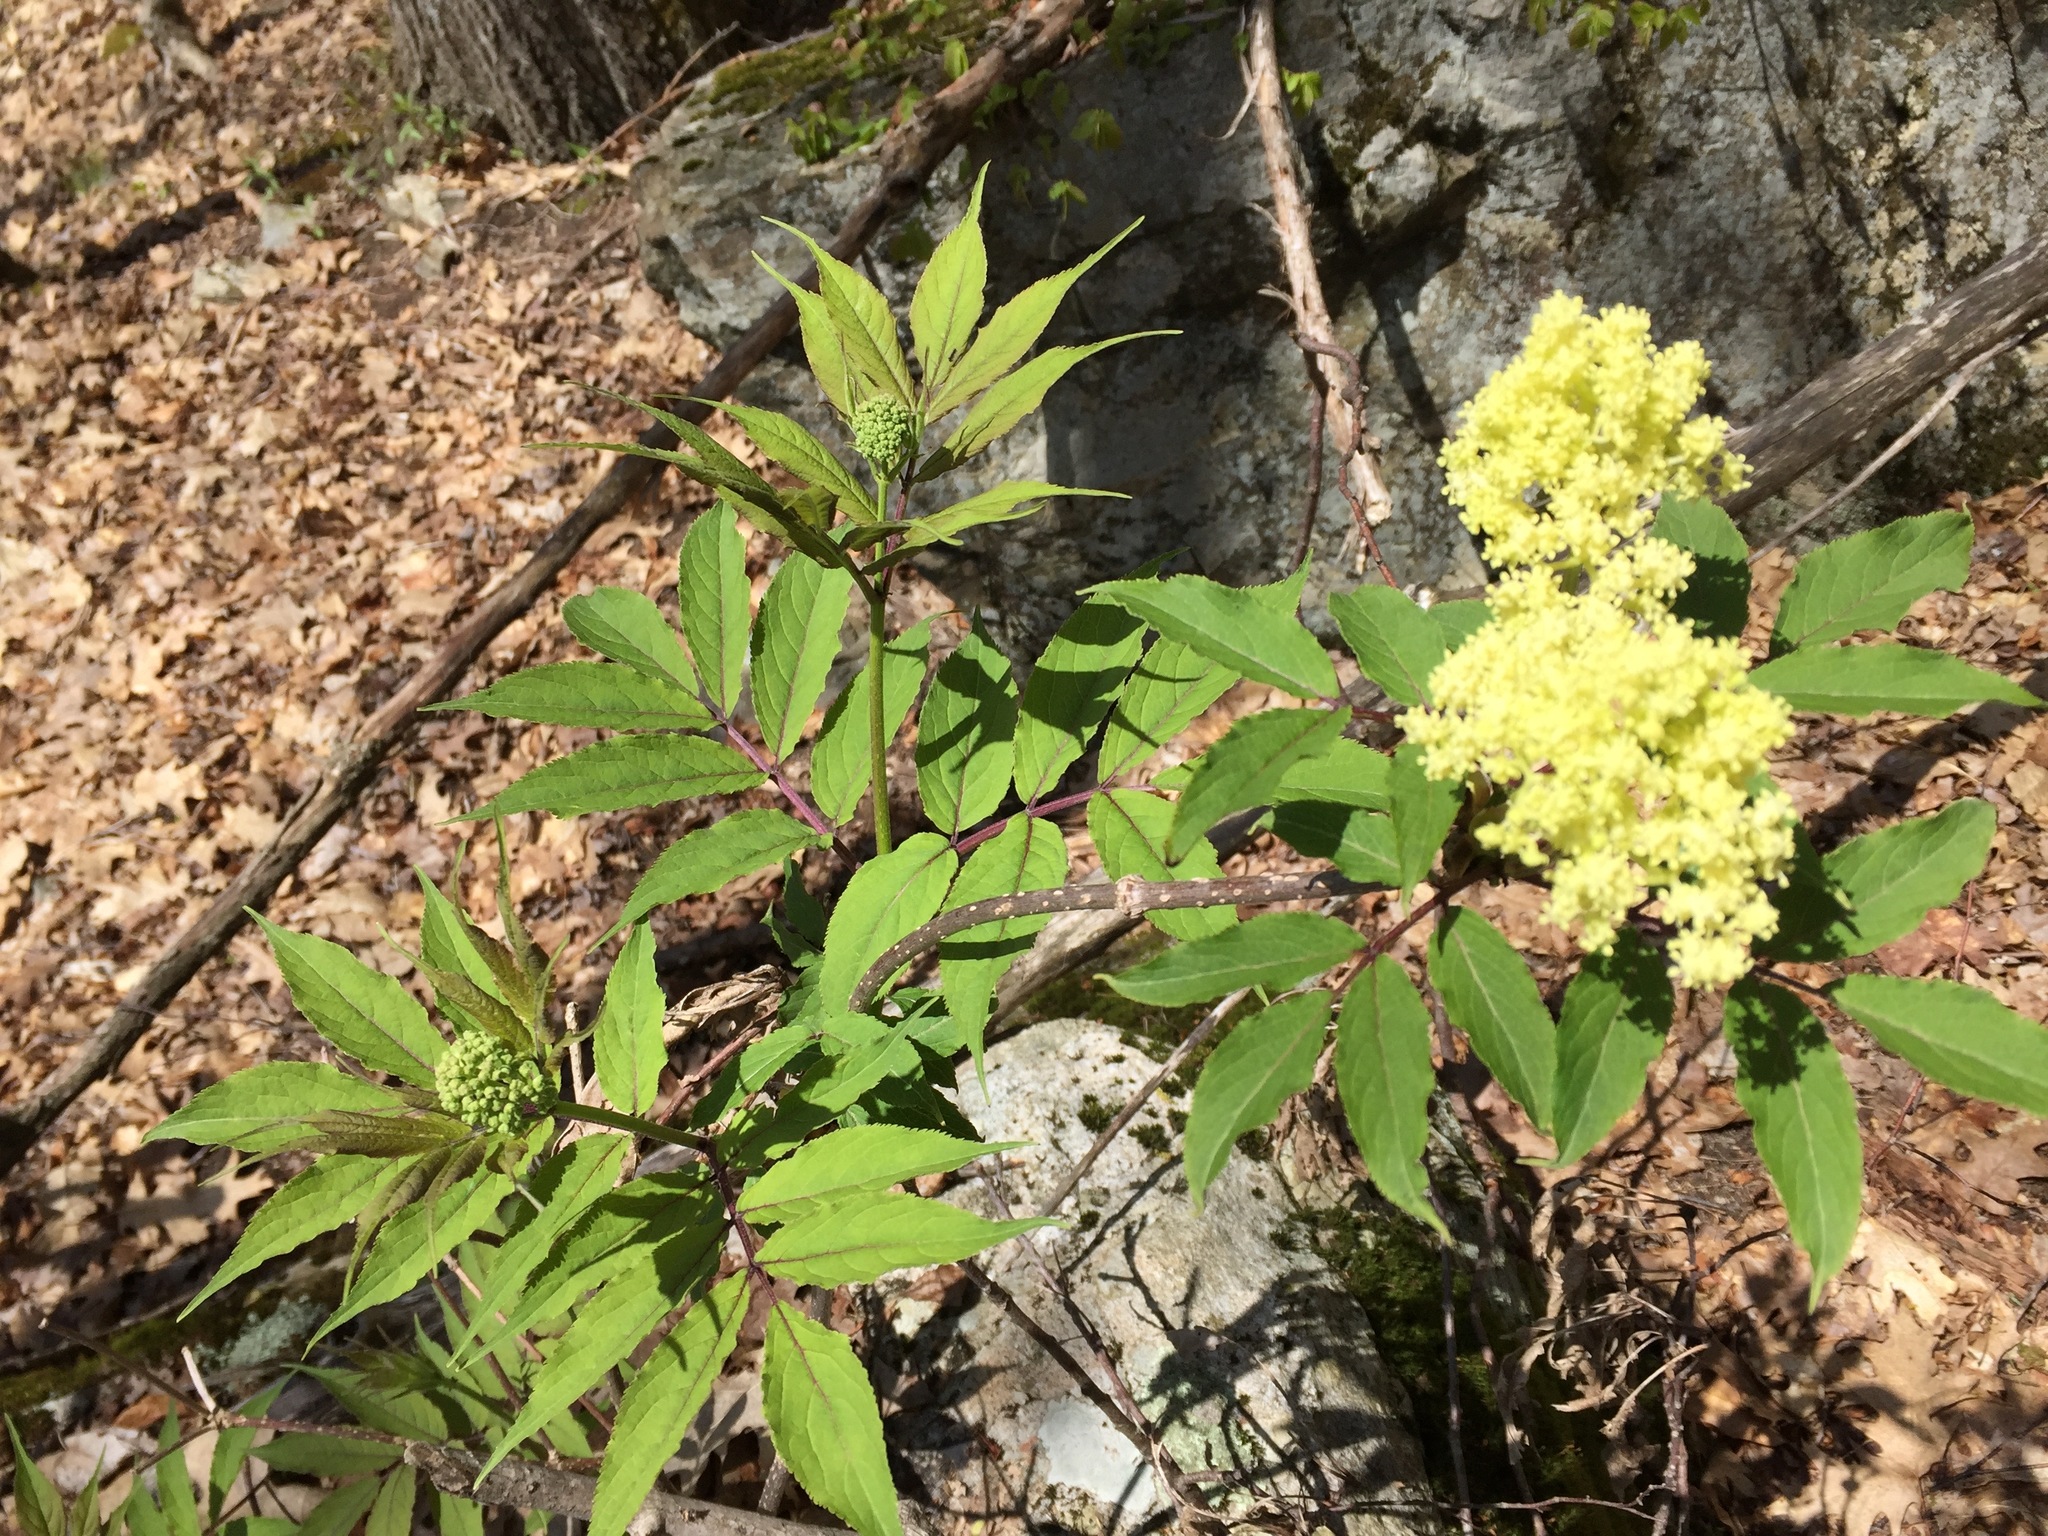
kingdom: Plantae
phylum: Tracheophyta
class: Magnoliopsida
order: Dipsacales
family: Viburnaceae
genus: Sambucus
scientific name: Sambucus racemosa
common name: Red-berried elder
